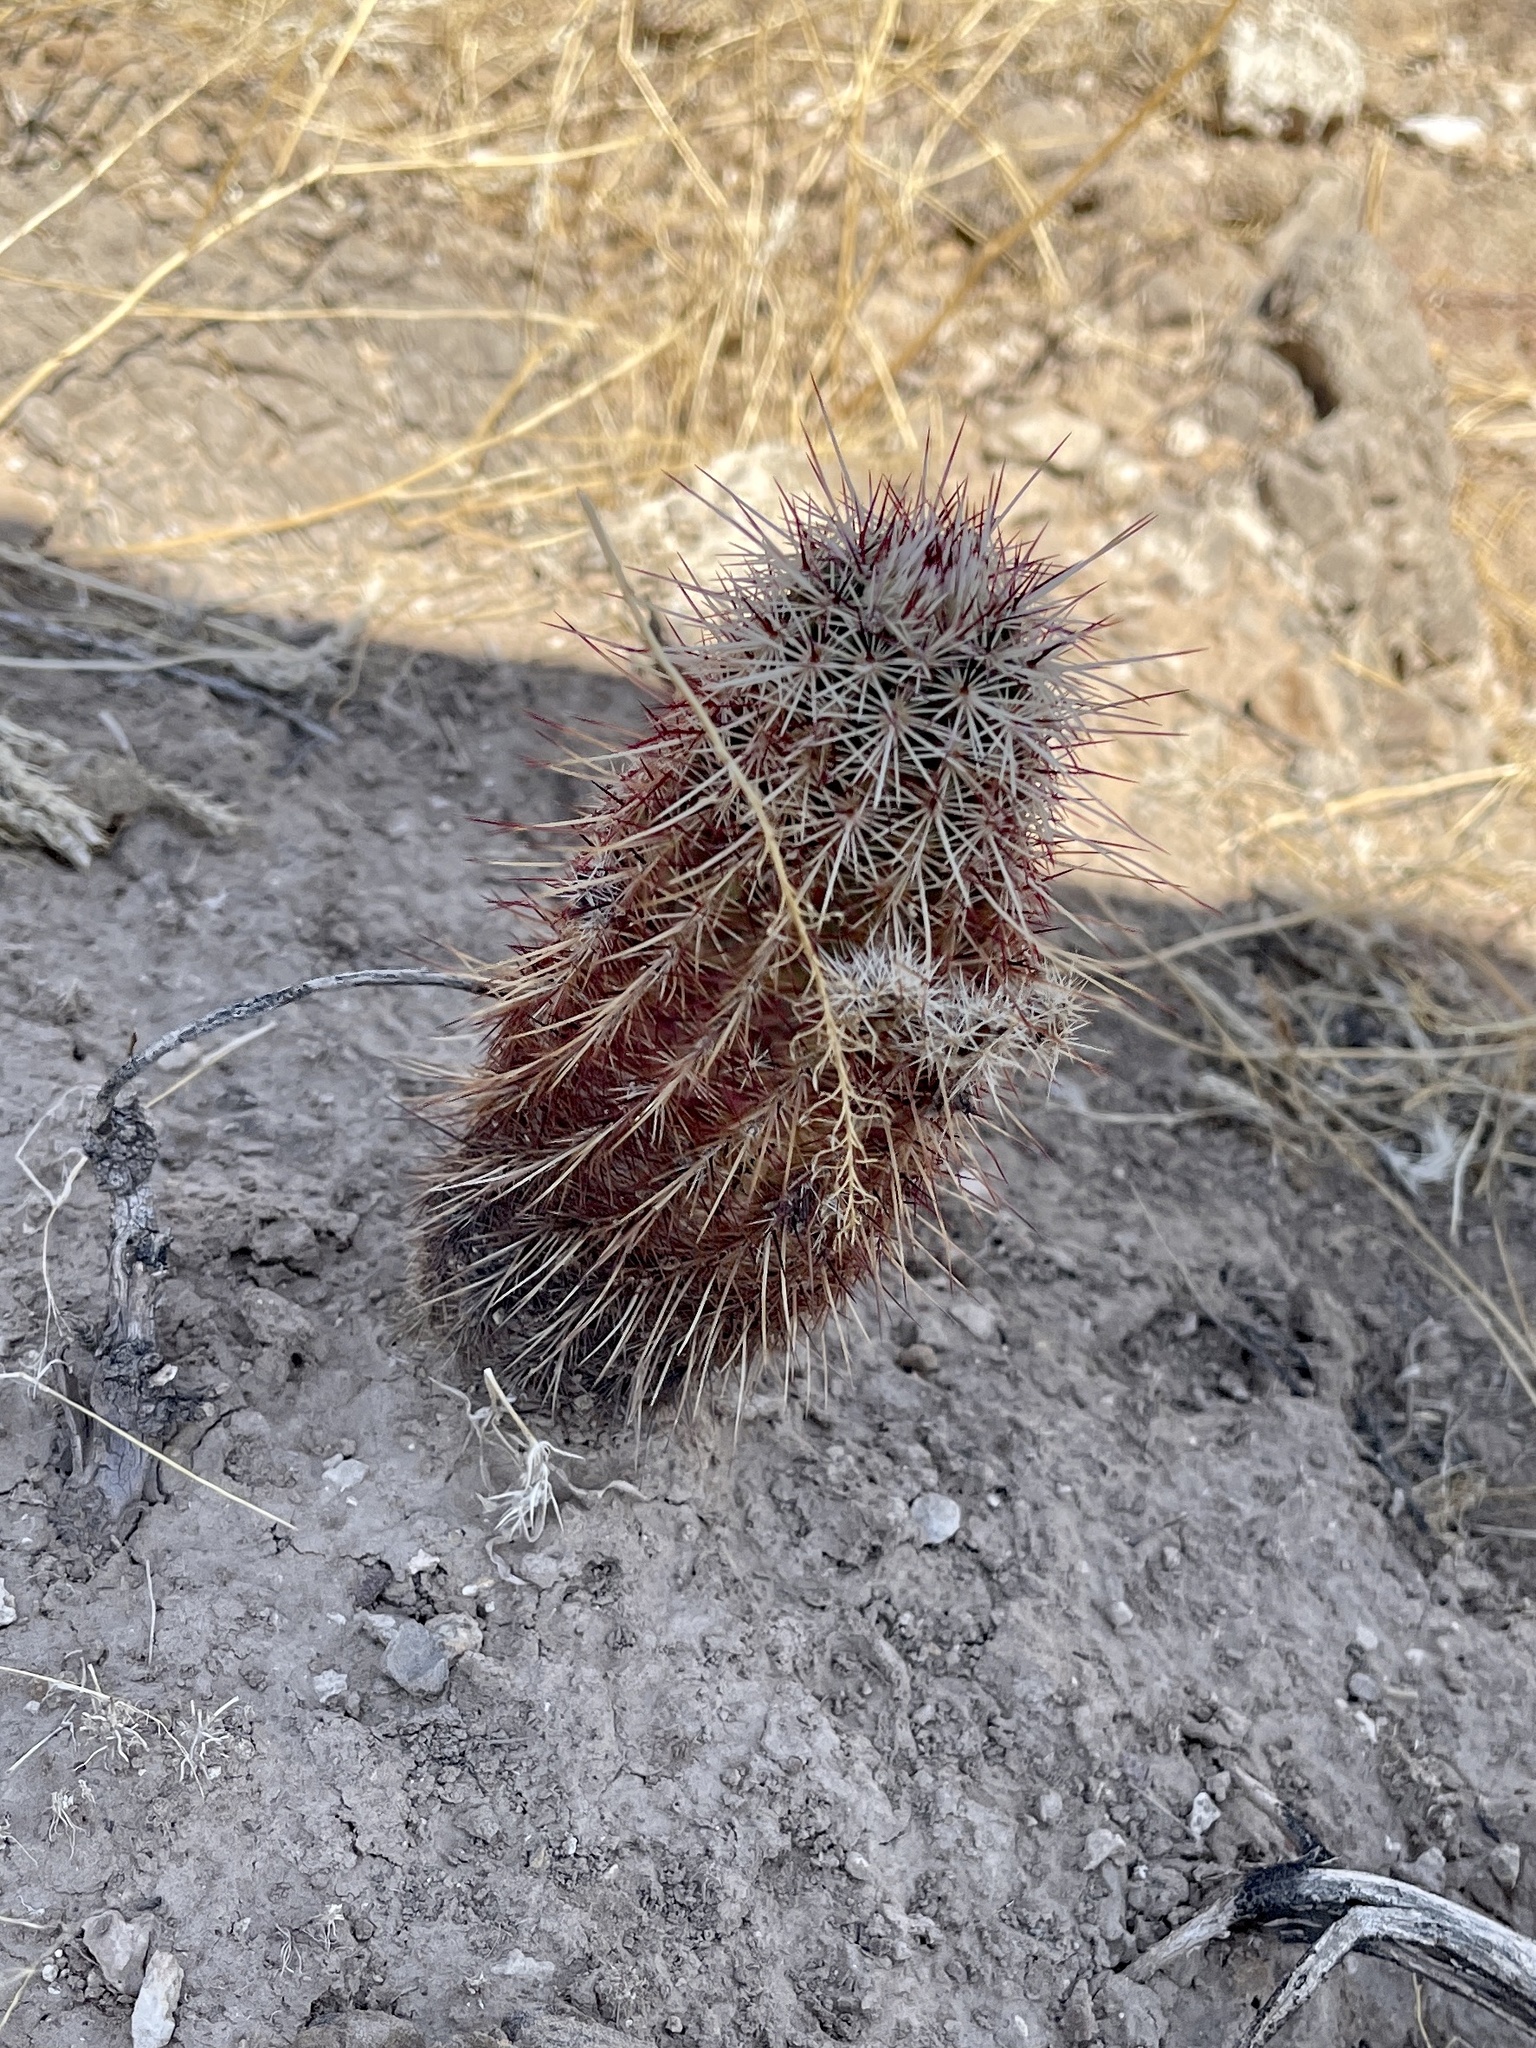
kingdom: Plantae
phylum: Tracheophyta
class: Magnoliopsida
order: Caryophyllales
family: Cactaceae
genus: Echinocereus
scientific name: Echinocereus viridiflorus
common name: Nylon hedgehog cactus
